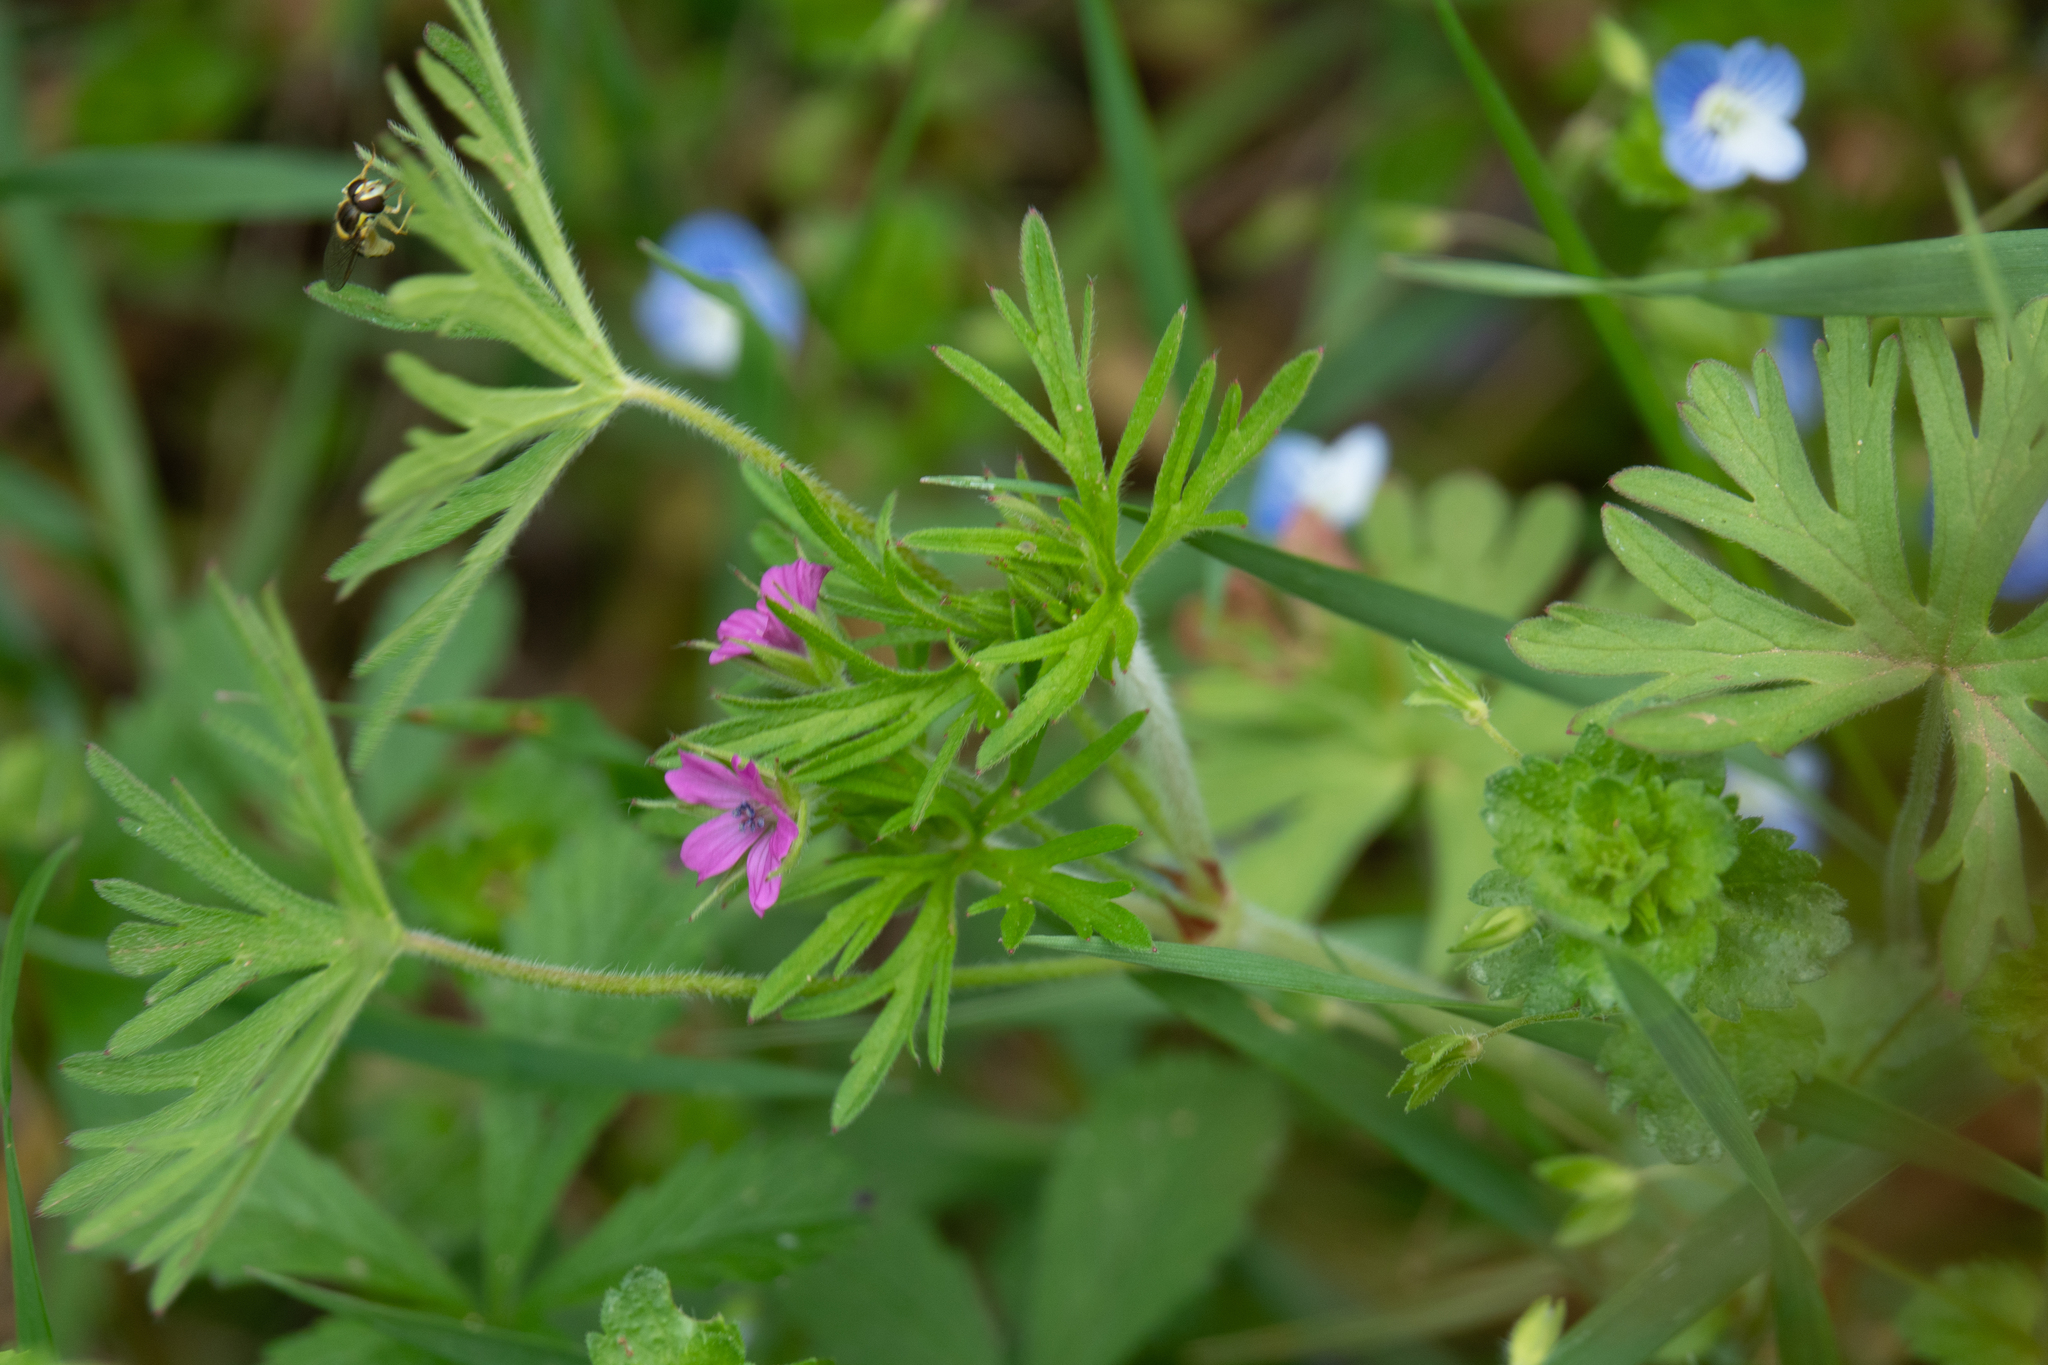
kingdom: Plantae
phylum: Tracheophyta
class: Magnoliopsida
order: Geraniales
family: Geraniaceae
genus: Geranium
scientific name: Geranium dissectum
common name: Cut-leaved crane's-bill
